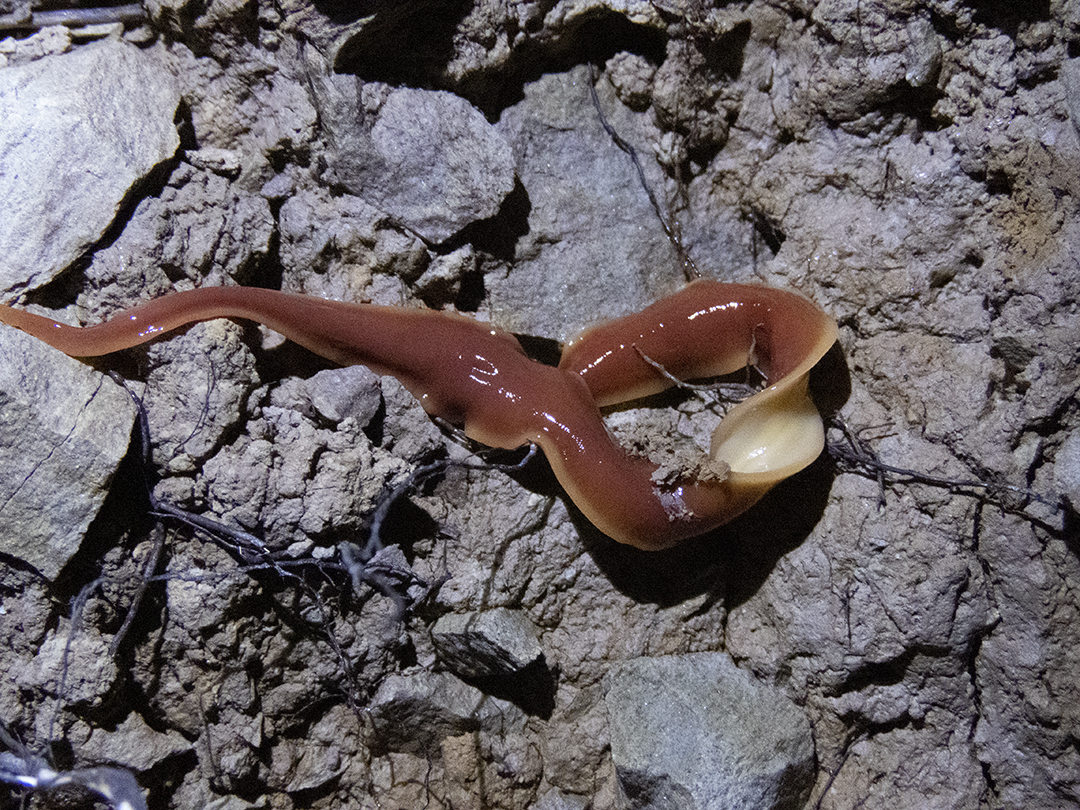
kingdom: Animalia
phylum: Platyhelminthes
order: Tricladida
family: Geoplanidae
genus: Arthurdendyus
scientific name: Arthurdendyus australis
